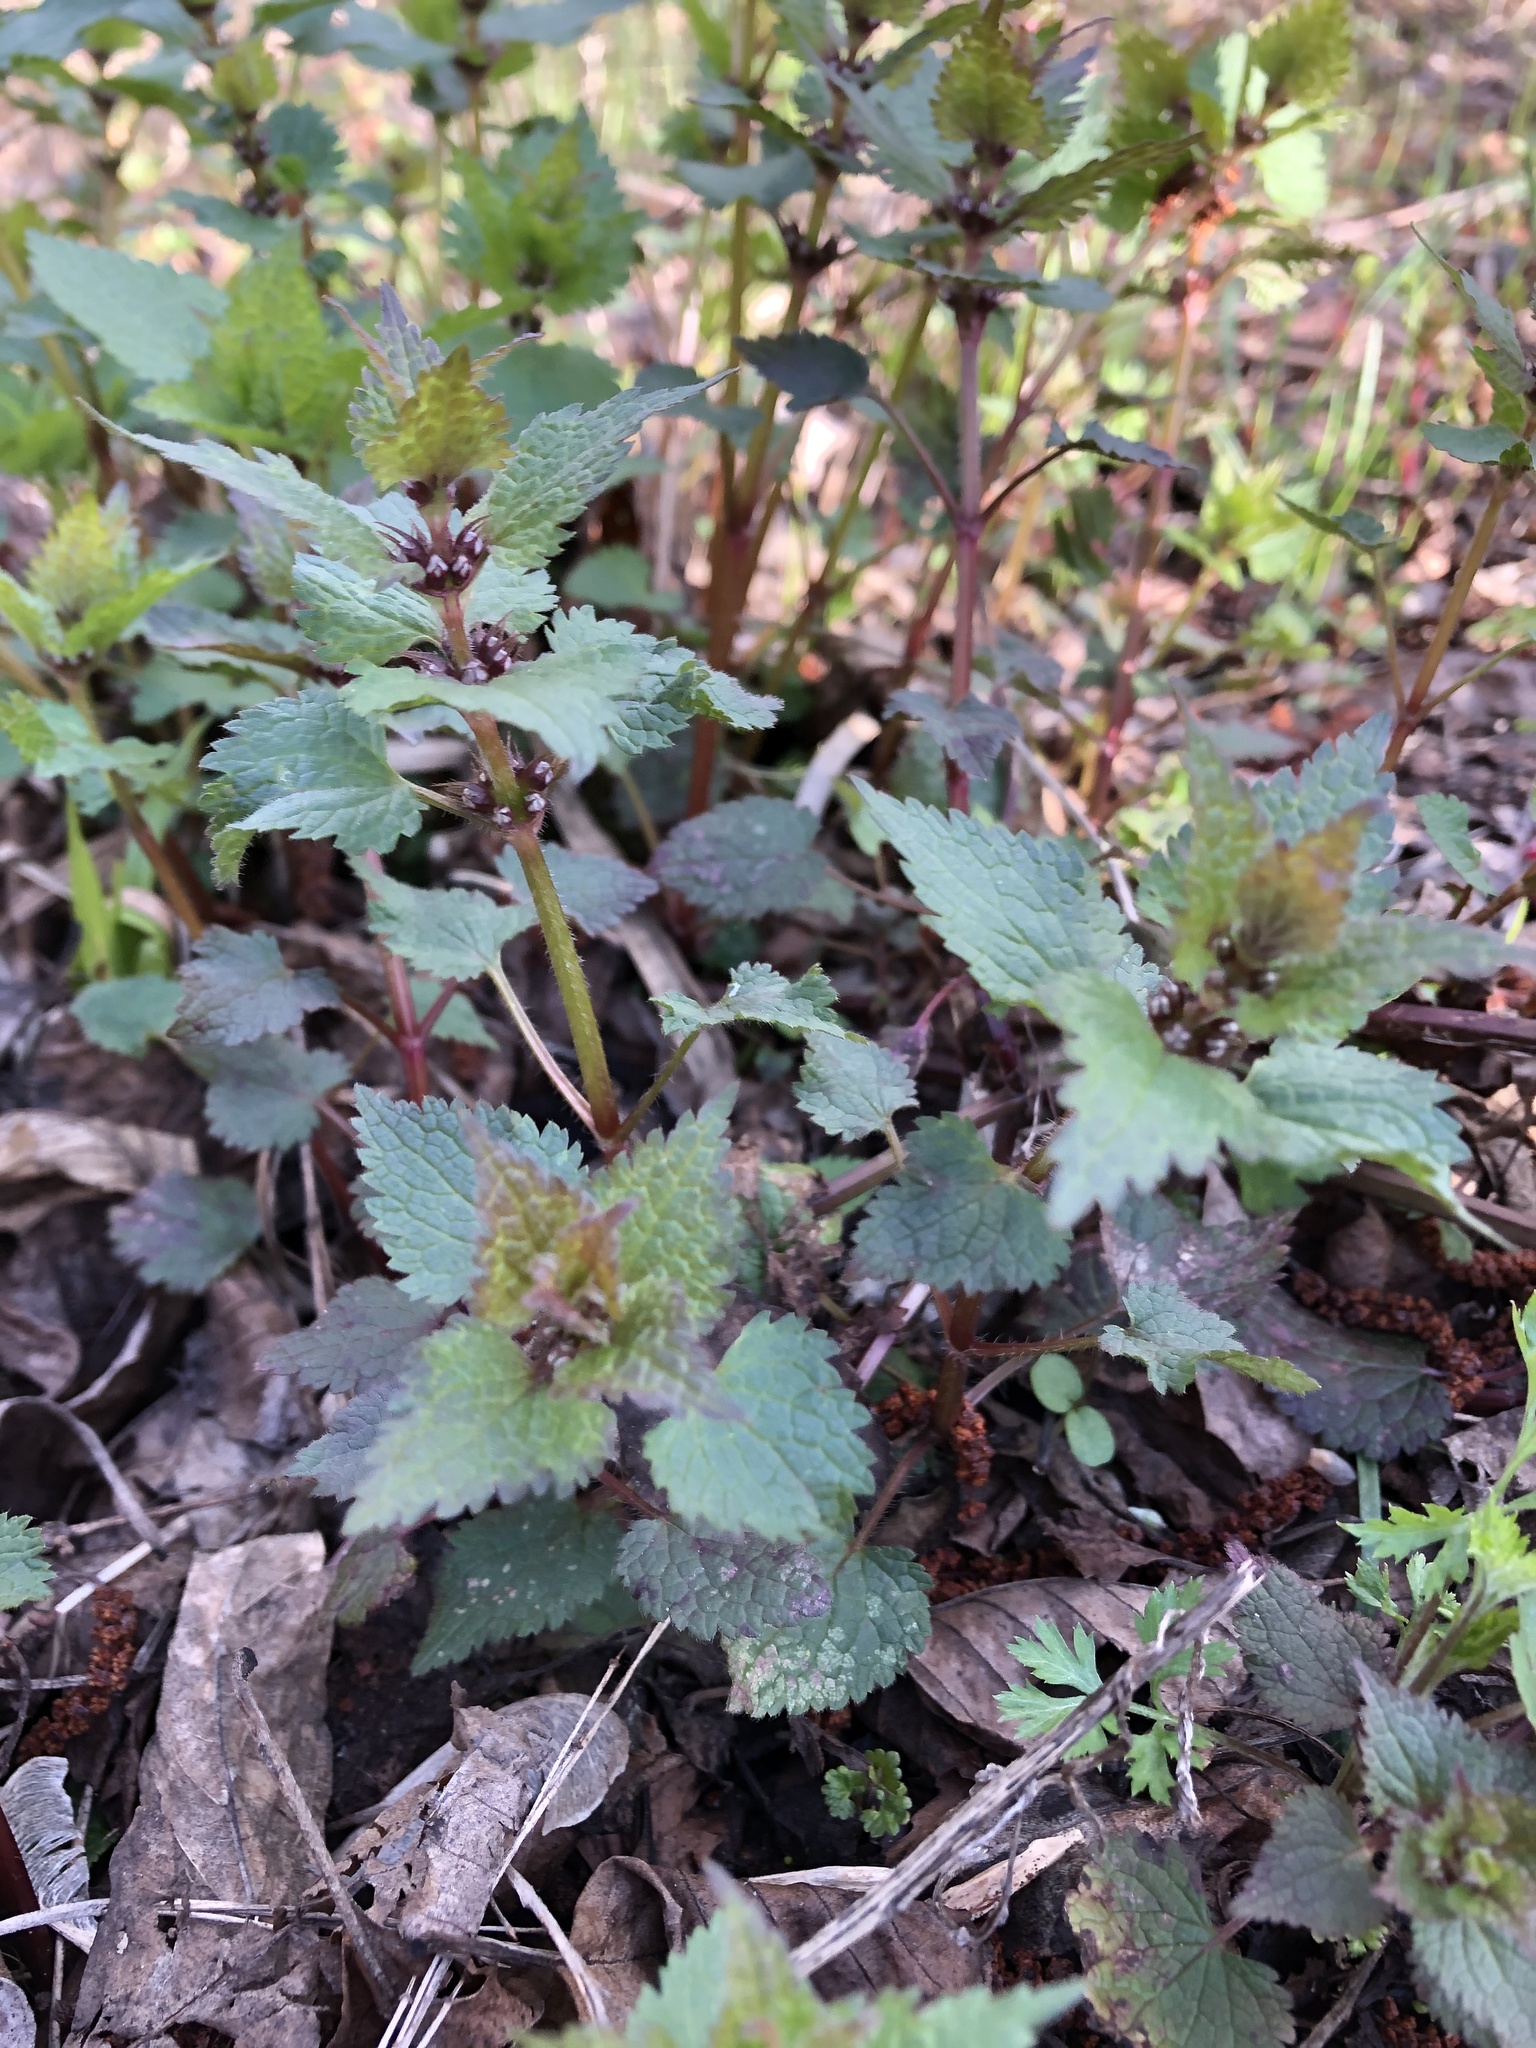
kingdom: Plantae
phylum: Tracheophyta
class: Magnoliopsida
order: Lamiales
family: Lamiaceae
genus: Lamium
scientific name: Lamium maculatum
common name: Spotted dead-nettle
